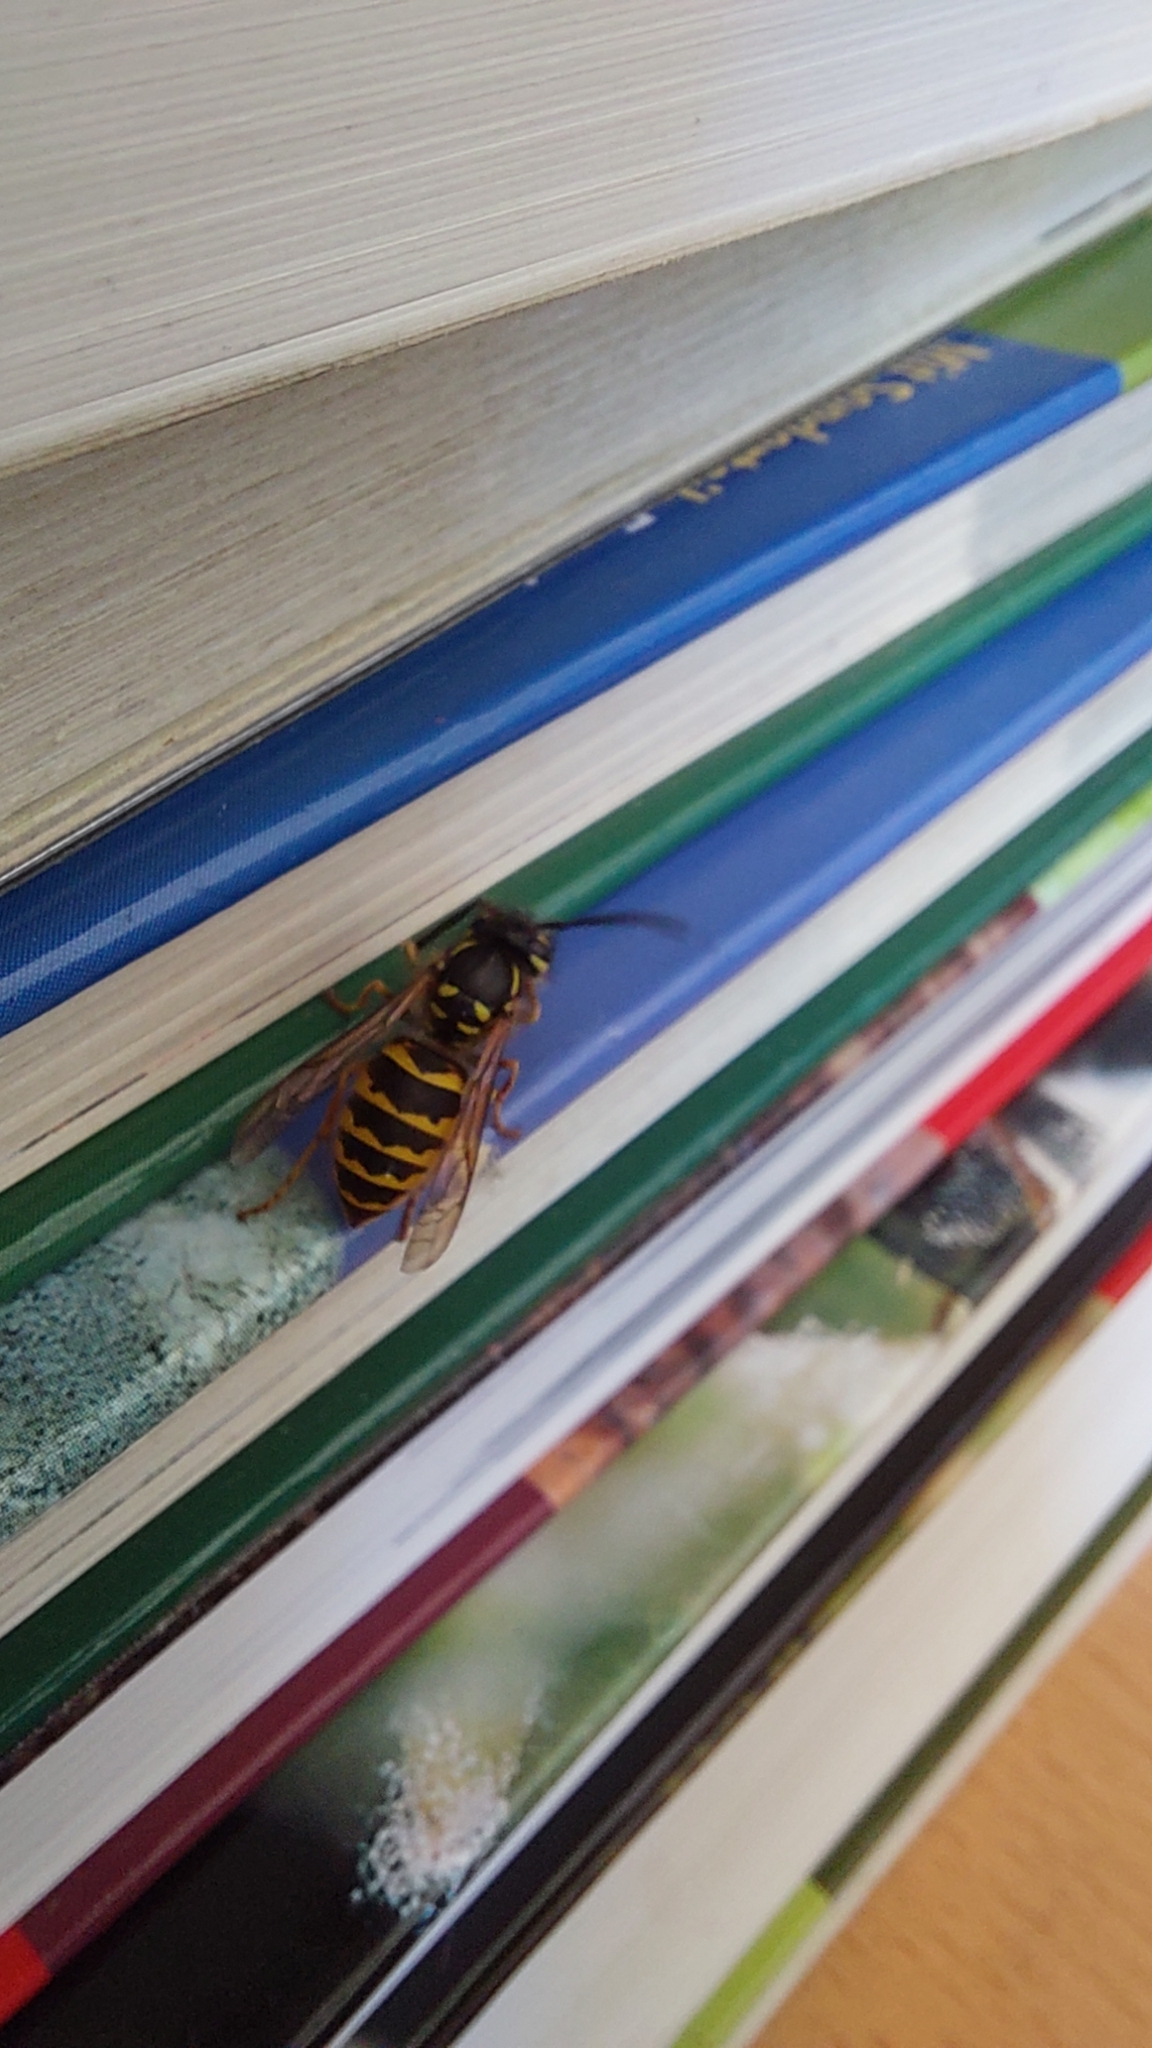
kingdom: Animalia
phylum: Arthropoda
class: Insecta
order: Hymenoptera
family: Vespidae
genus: Vespula
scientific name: Vespula vulgaris
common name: Common wasp
